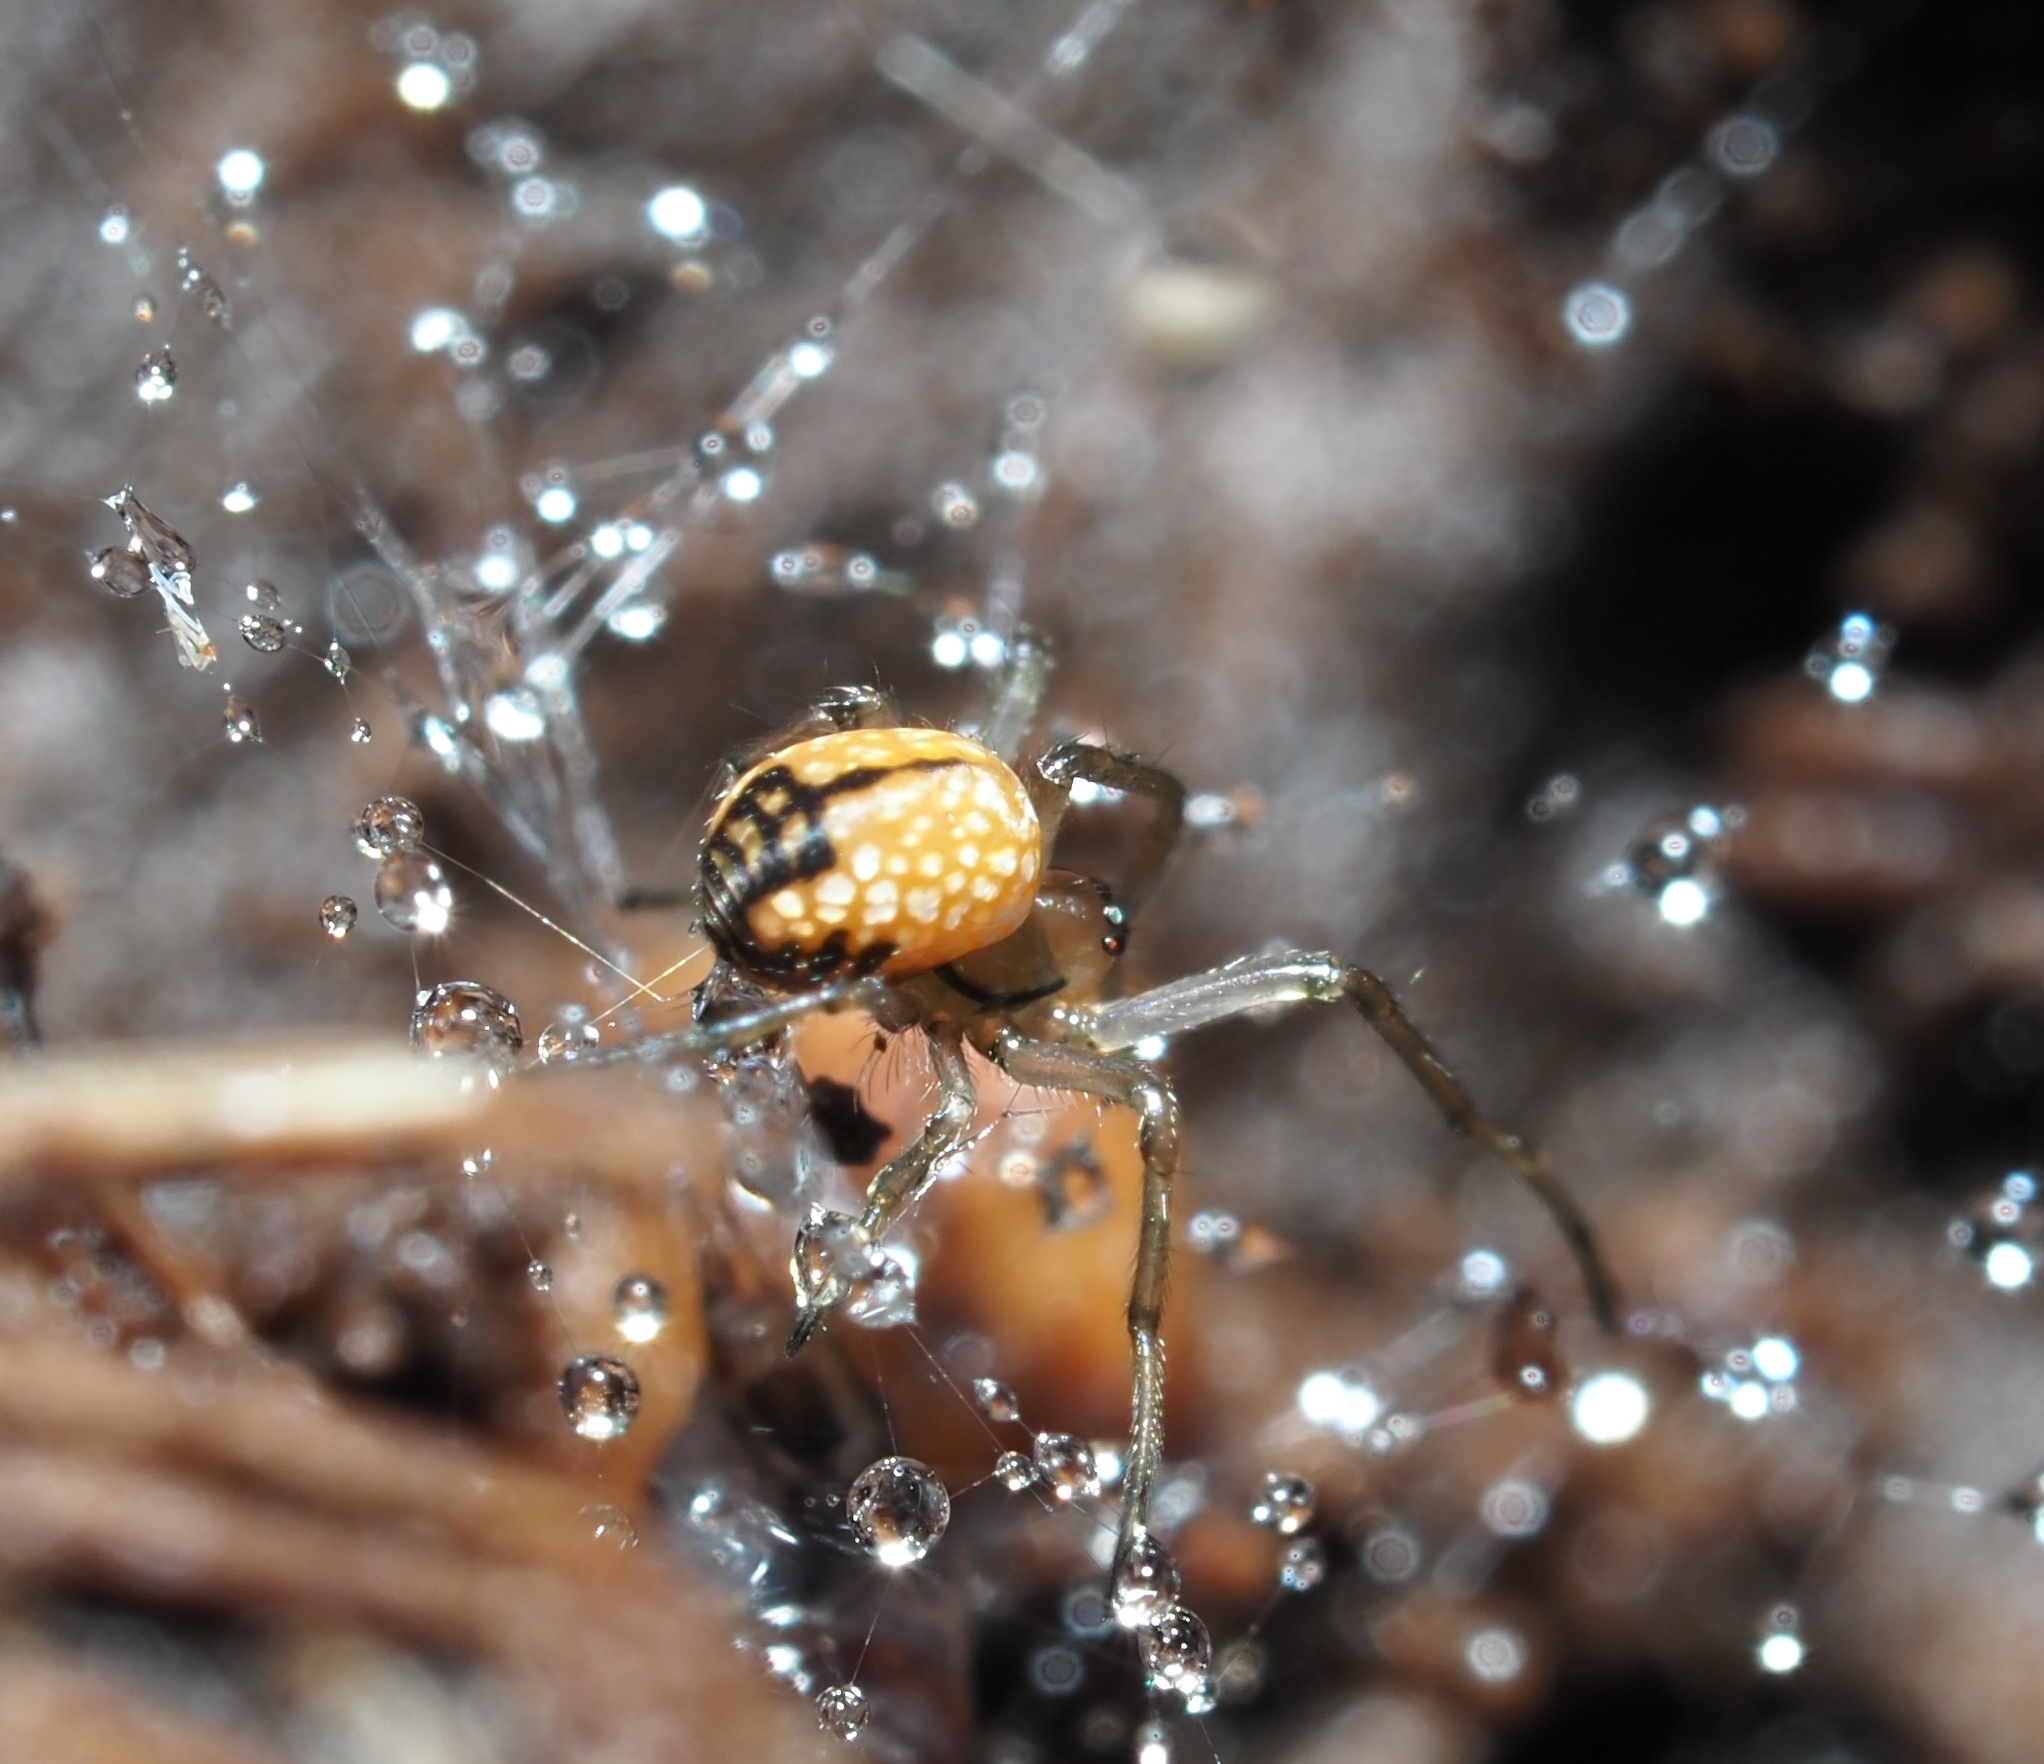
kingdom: Animalia
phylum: Arthropoda
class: Arachnida
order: Araneae
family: Tetragnathidae
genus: Leucauge
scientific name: Leucauge venusta
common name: Longjawed orb weavers
